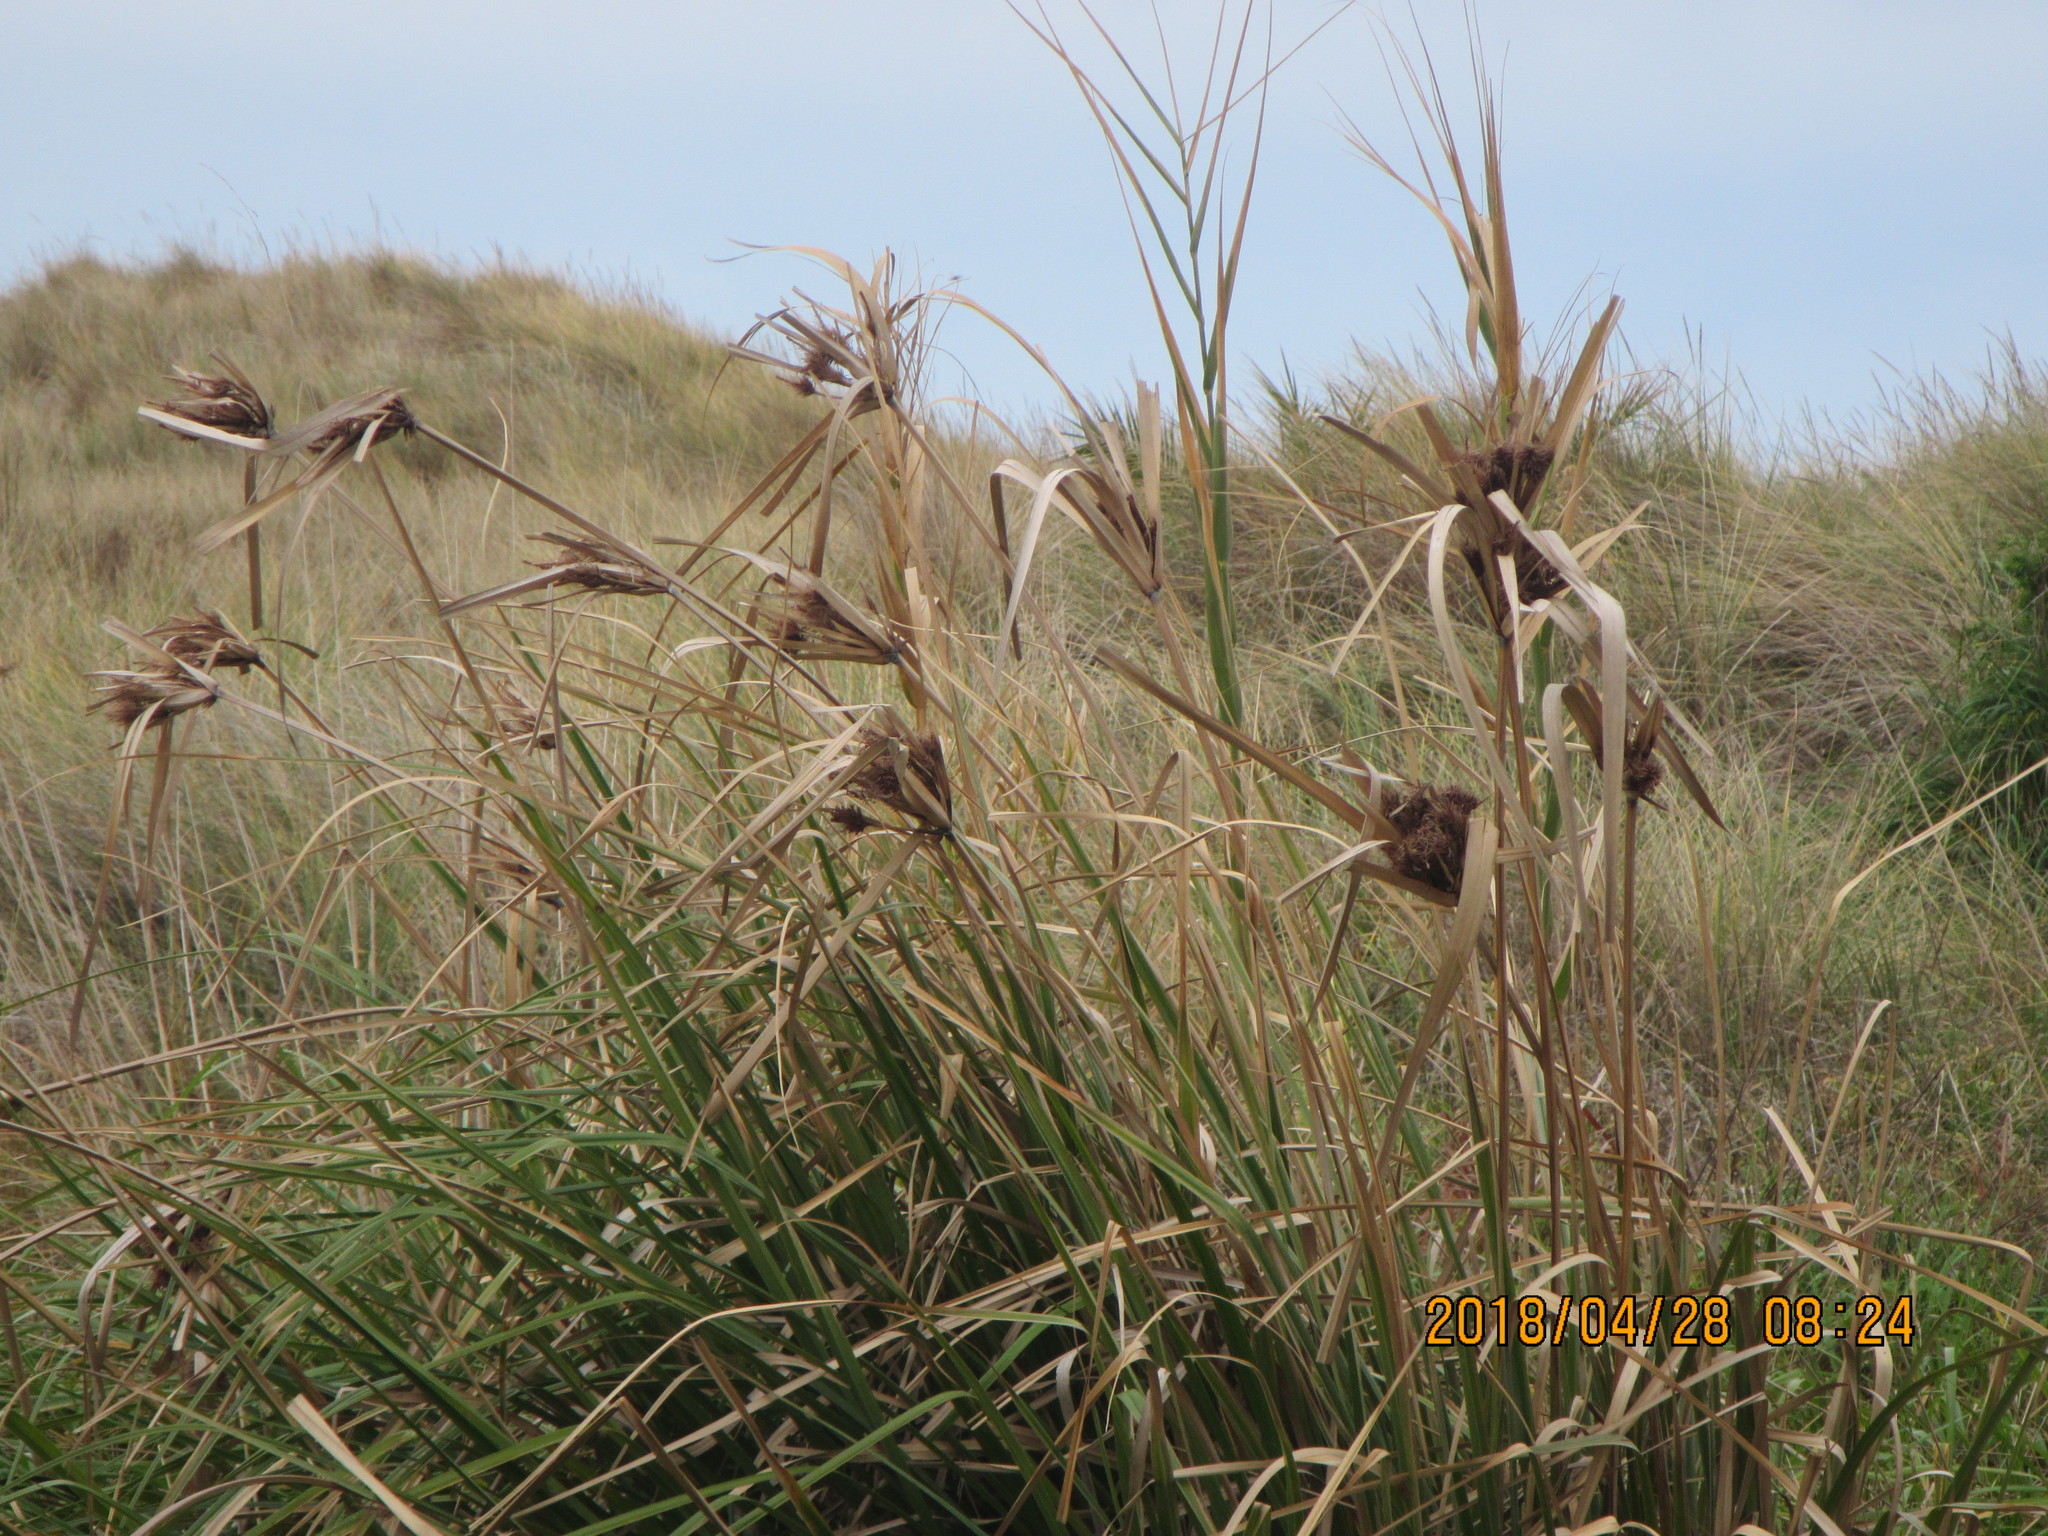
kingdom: Plantae
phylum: Tracheophyta
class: Liliopsida
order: Poales
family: Cyperaceae
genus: Cyperus
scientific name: Cyperus ustulatus
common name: Giant umbrella-sedge
